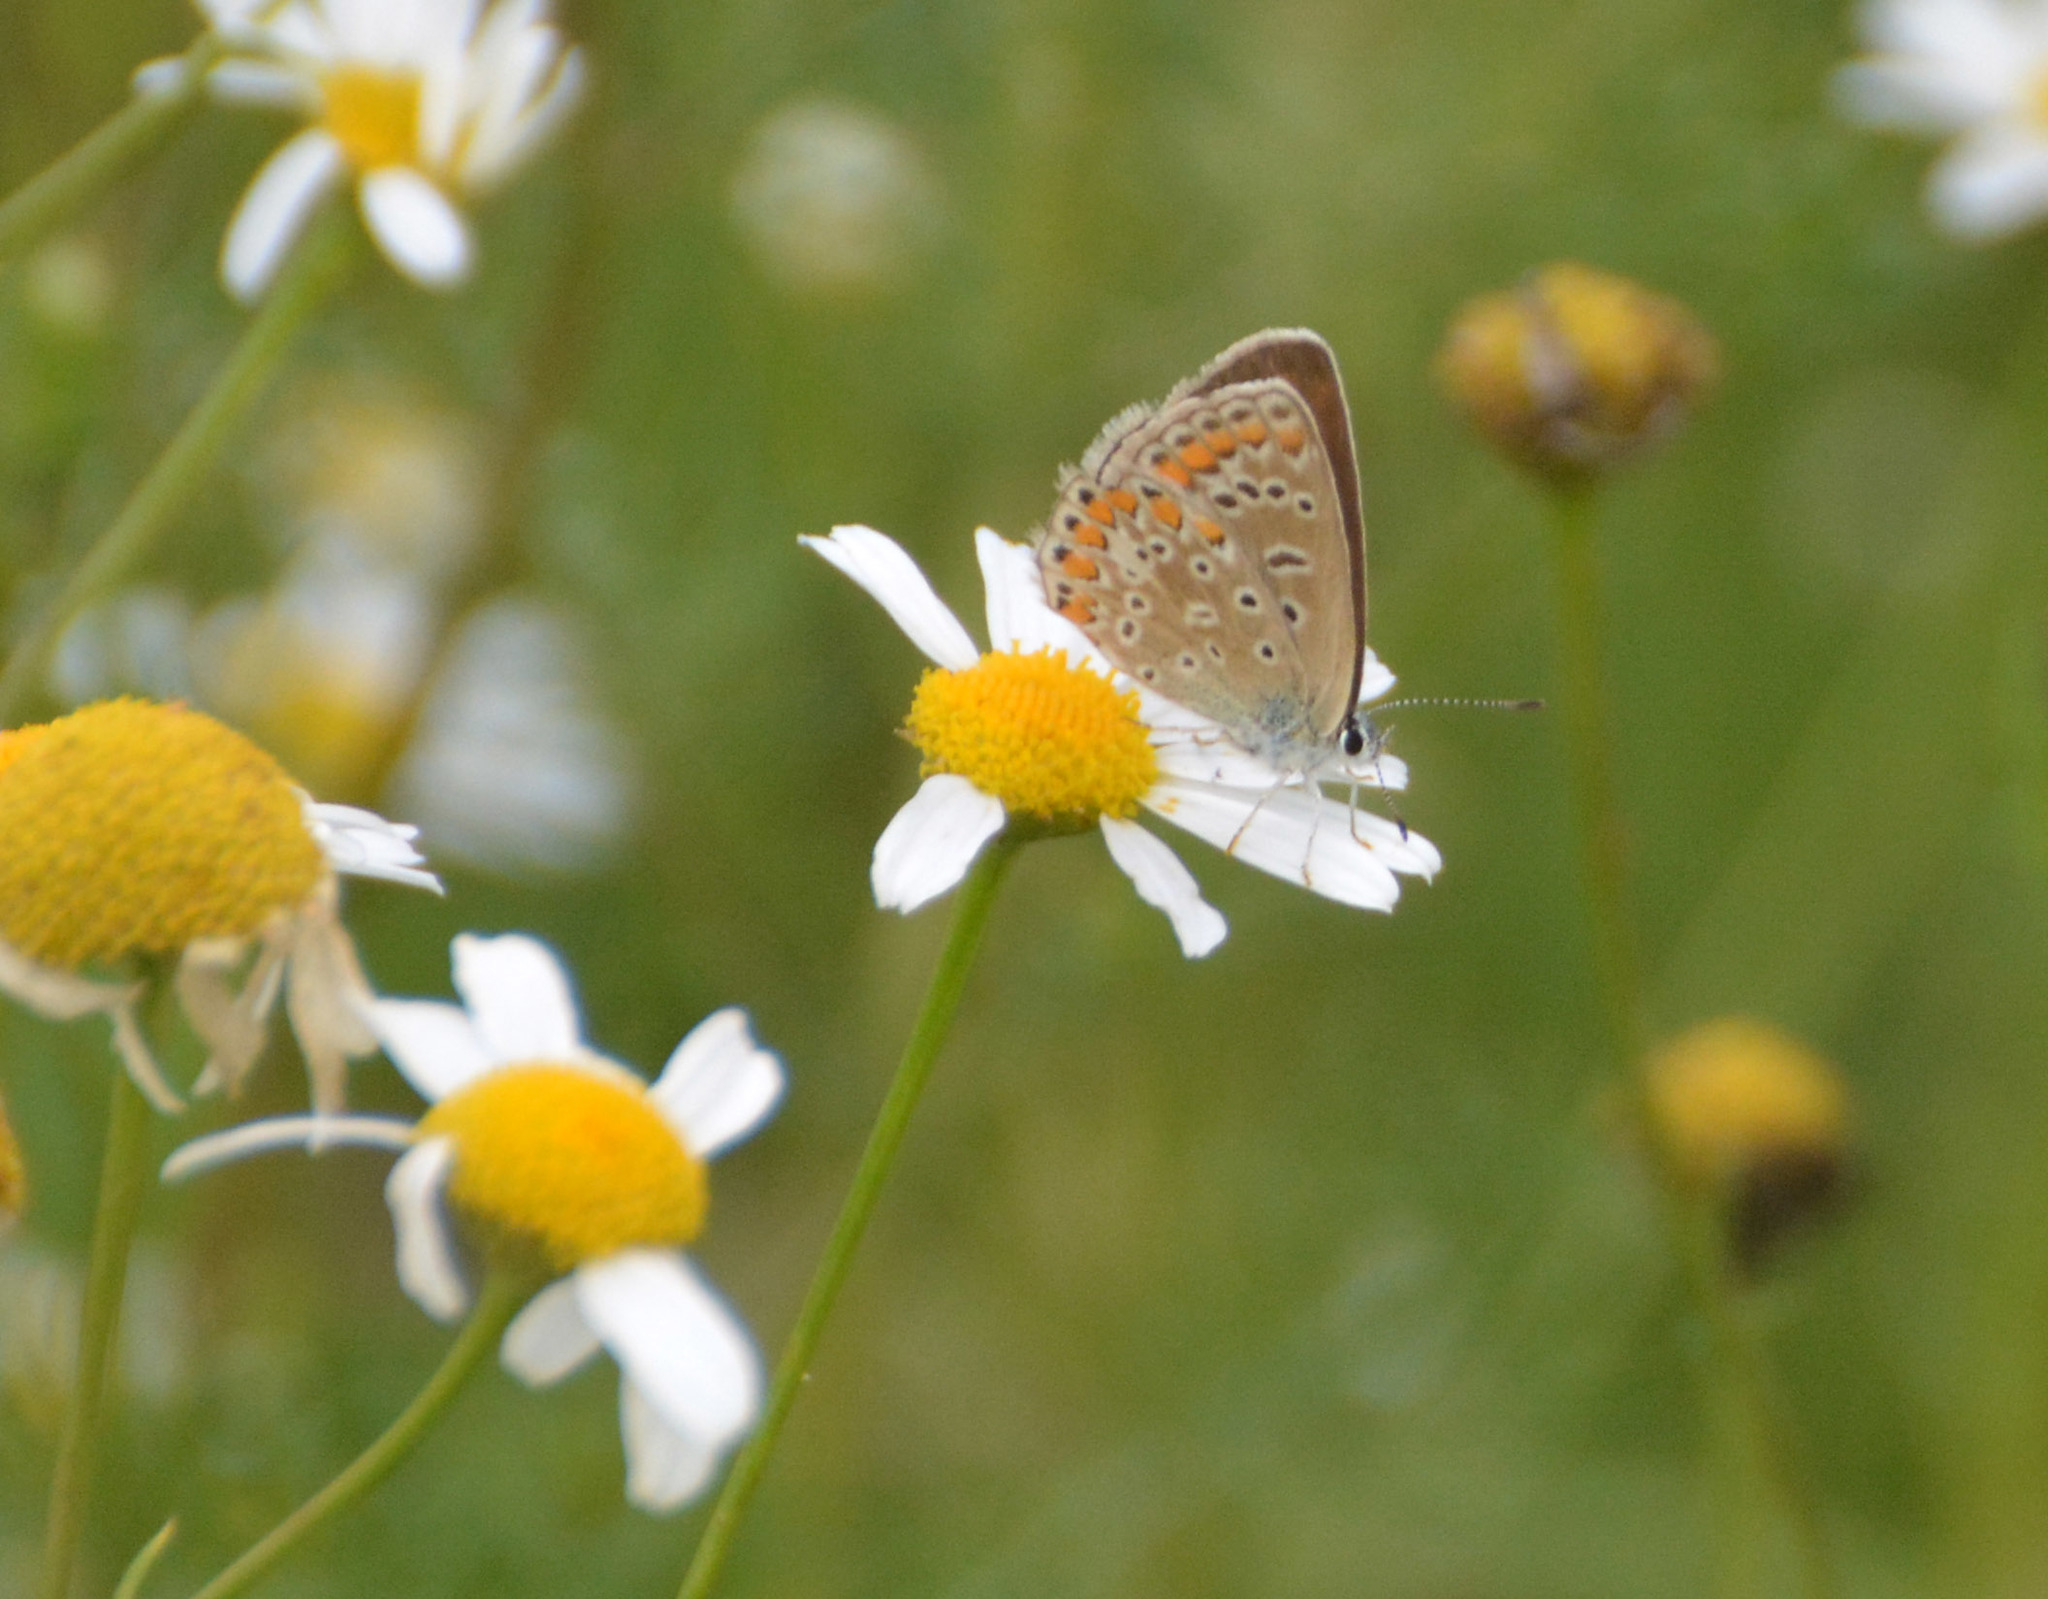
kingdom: Animalia
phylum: Arthropoda
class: Insecta
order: Lepidoptera
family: Lycaenidae
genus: Polyommatus
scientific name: Polyommatus icarus
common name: Common blue
